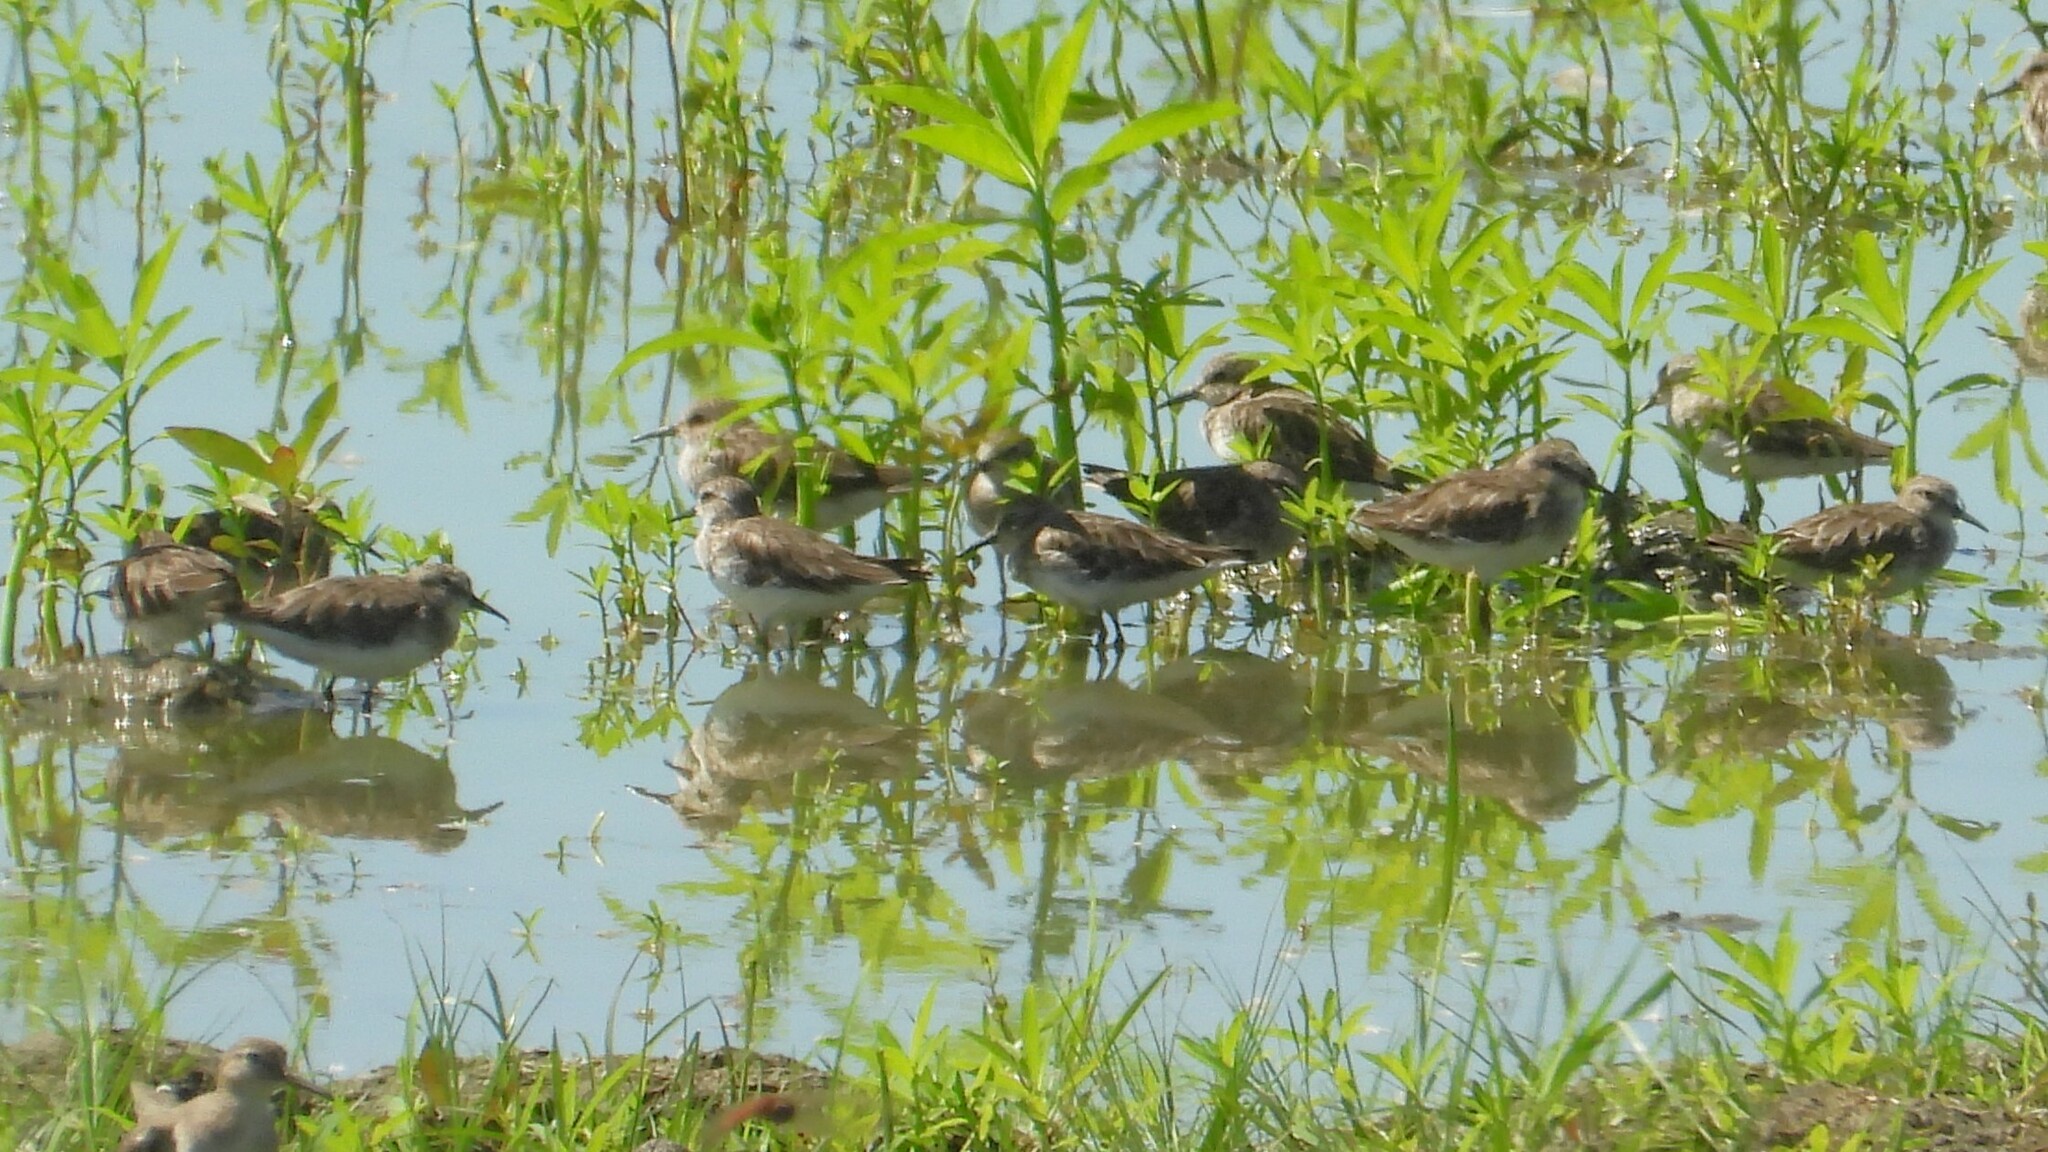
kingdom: Animalia
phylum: Chordata
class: Aves
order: Charadriiformes
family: Scolopacidae
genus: Calidris
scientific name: Calidris minutilla
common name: Least sandpiper
